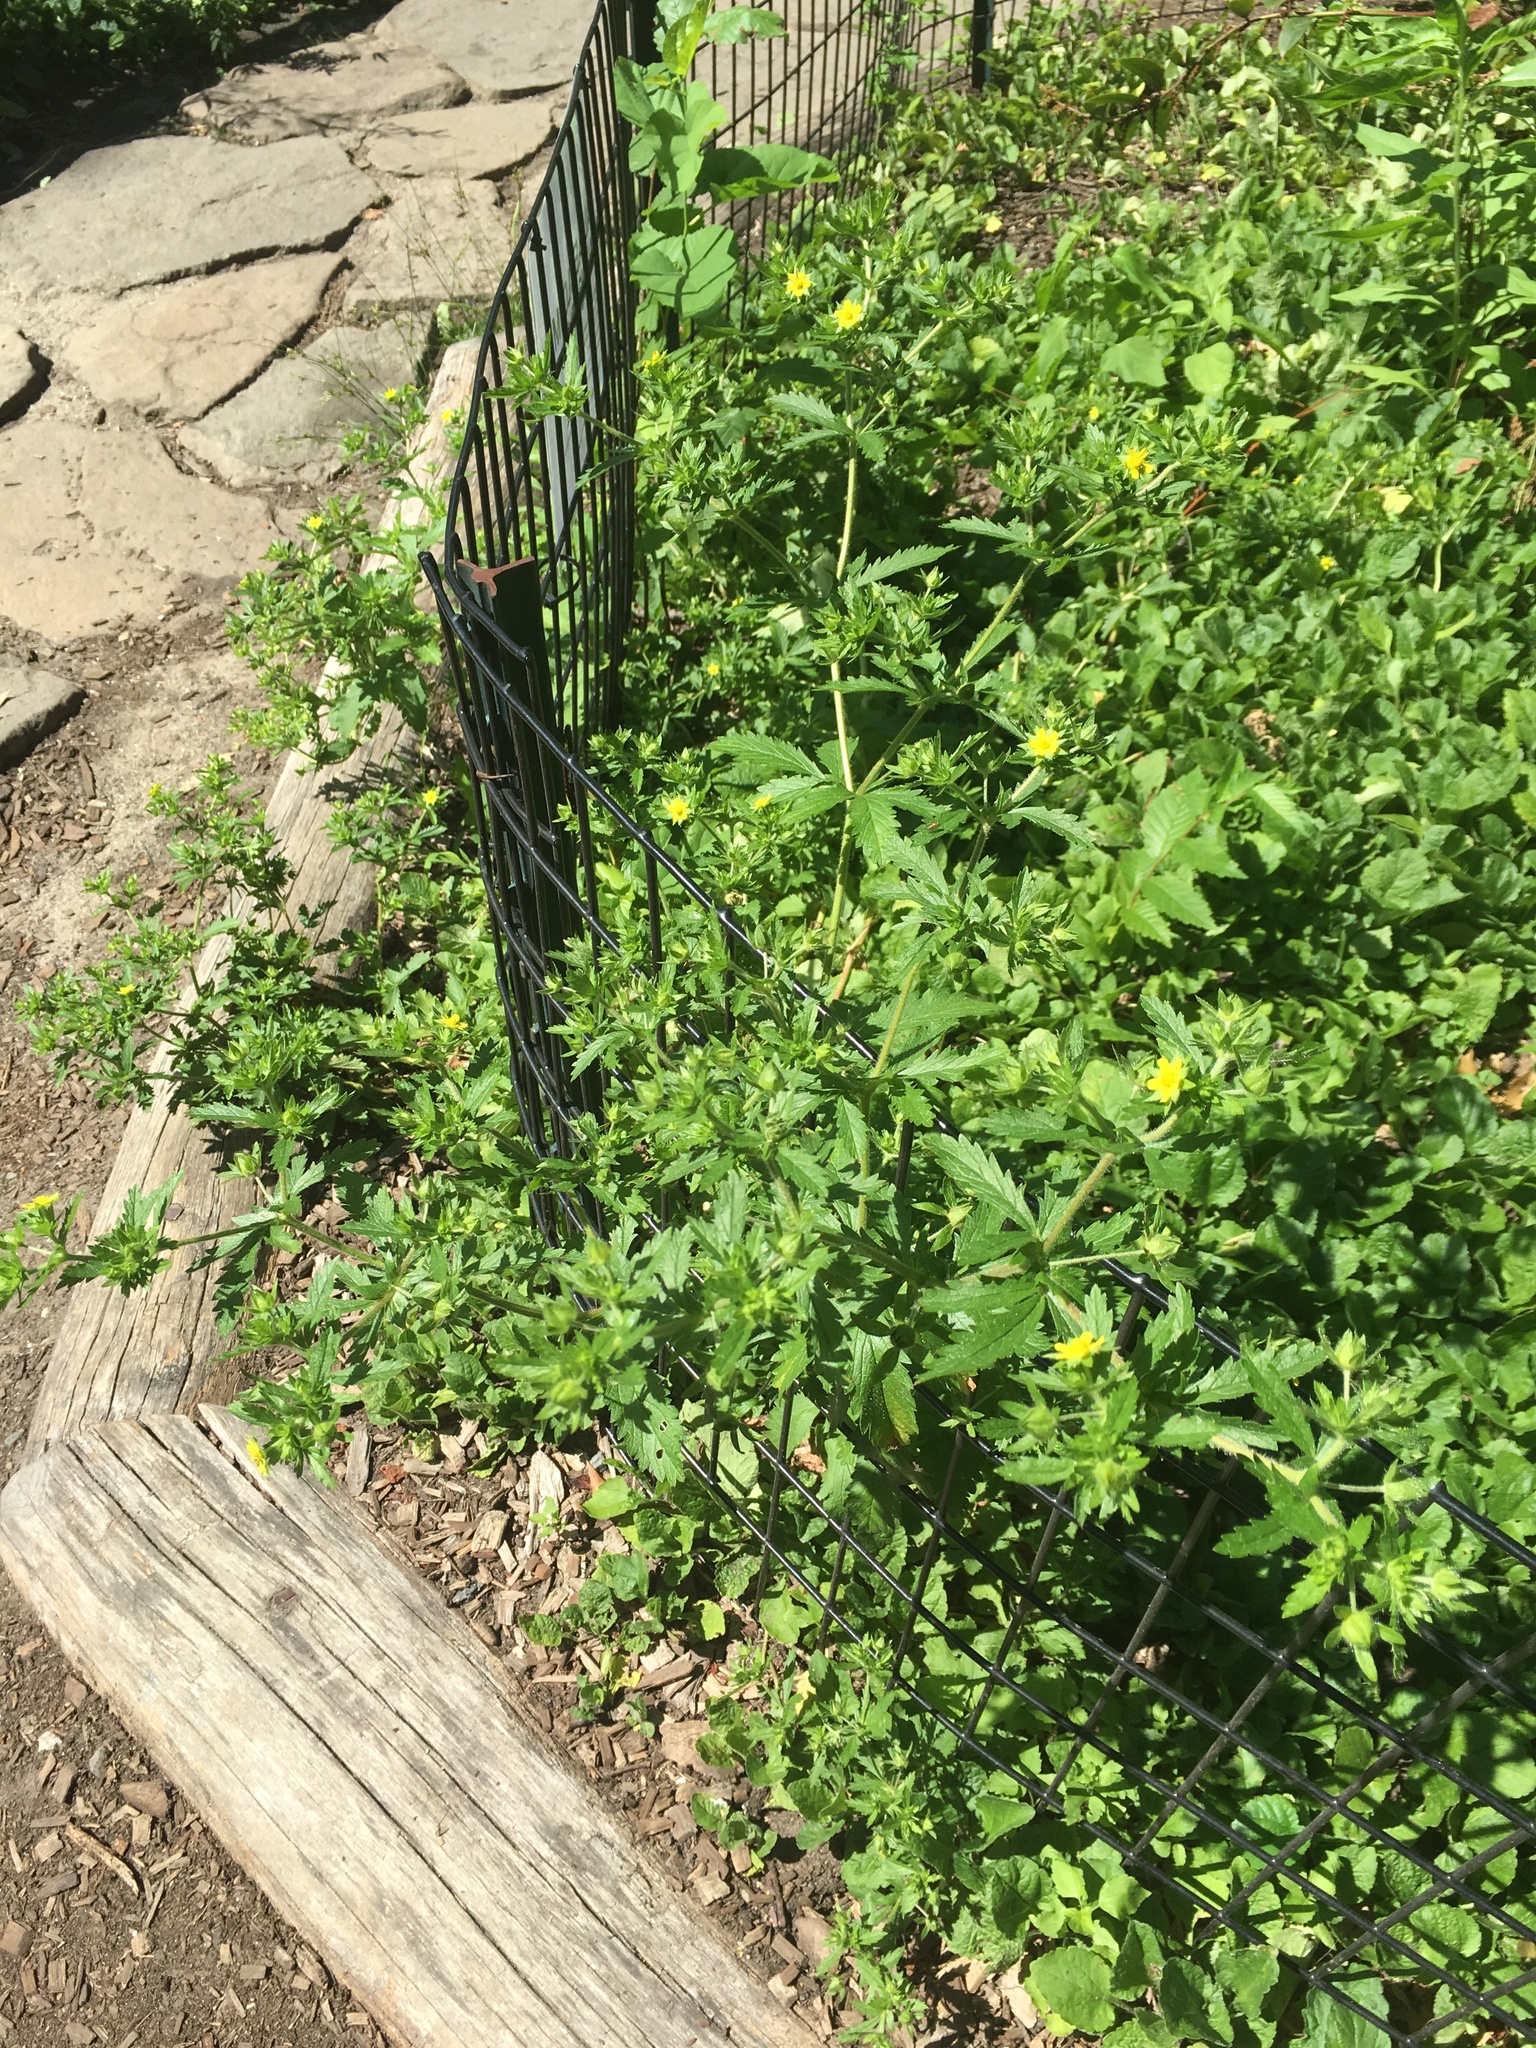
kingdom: Plantae
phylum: Tracheophyta
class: Magnoliopsida
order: Rosales
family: Rosaceae
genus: Potentilla
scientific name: Potentilla norvegica
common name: Ternate-leaved cinquefoil
